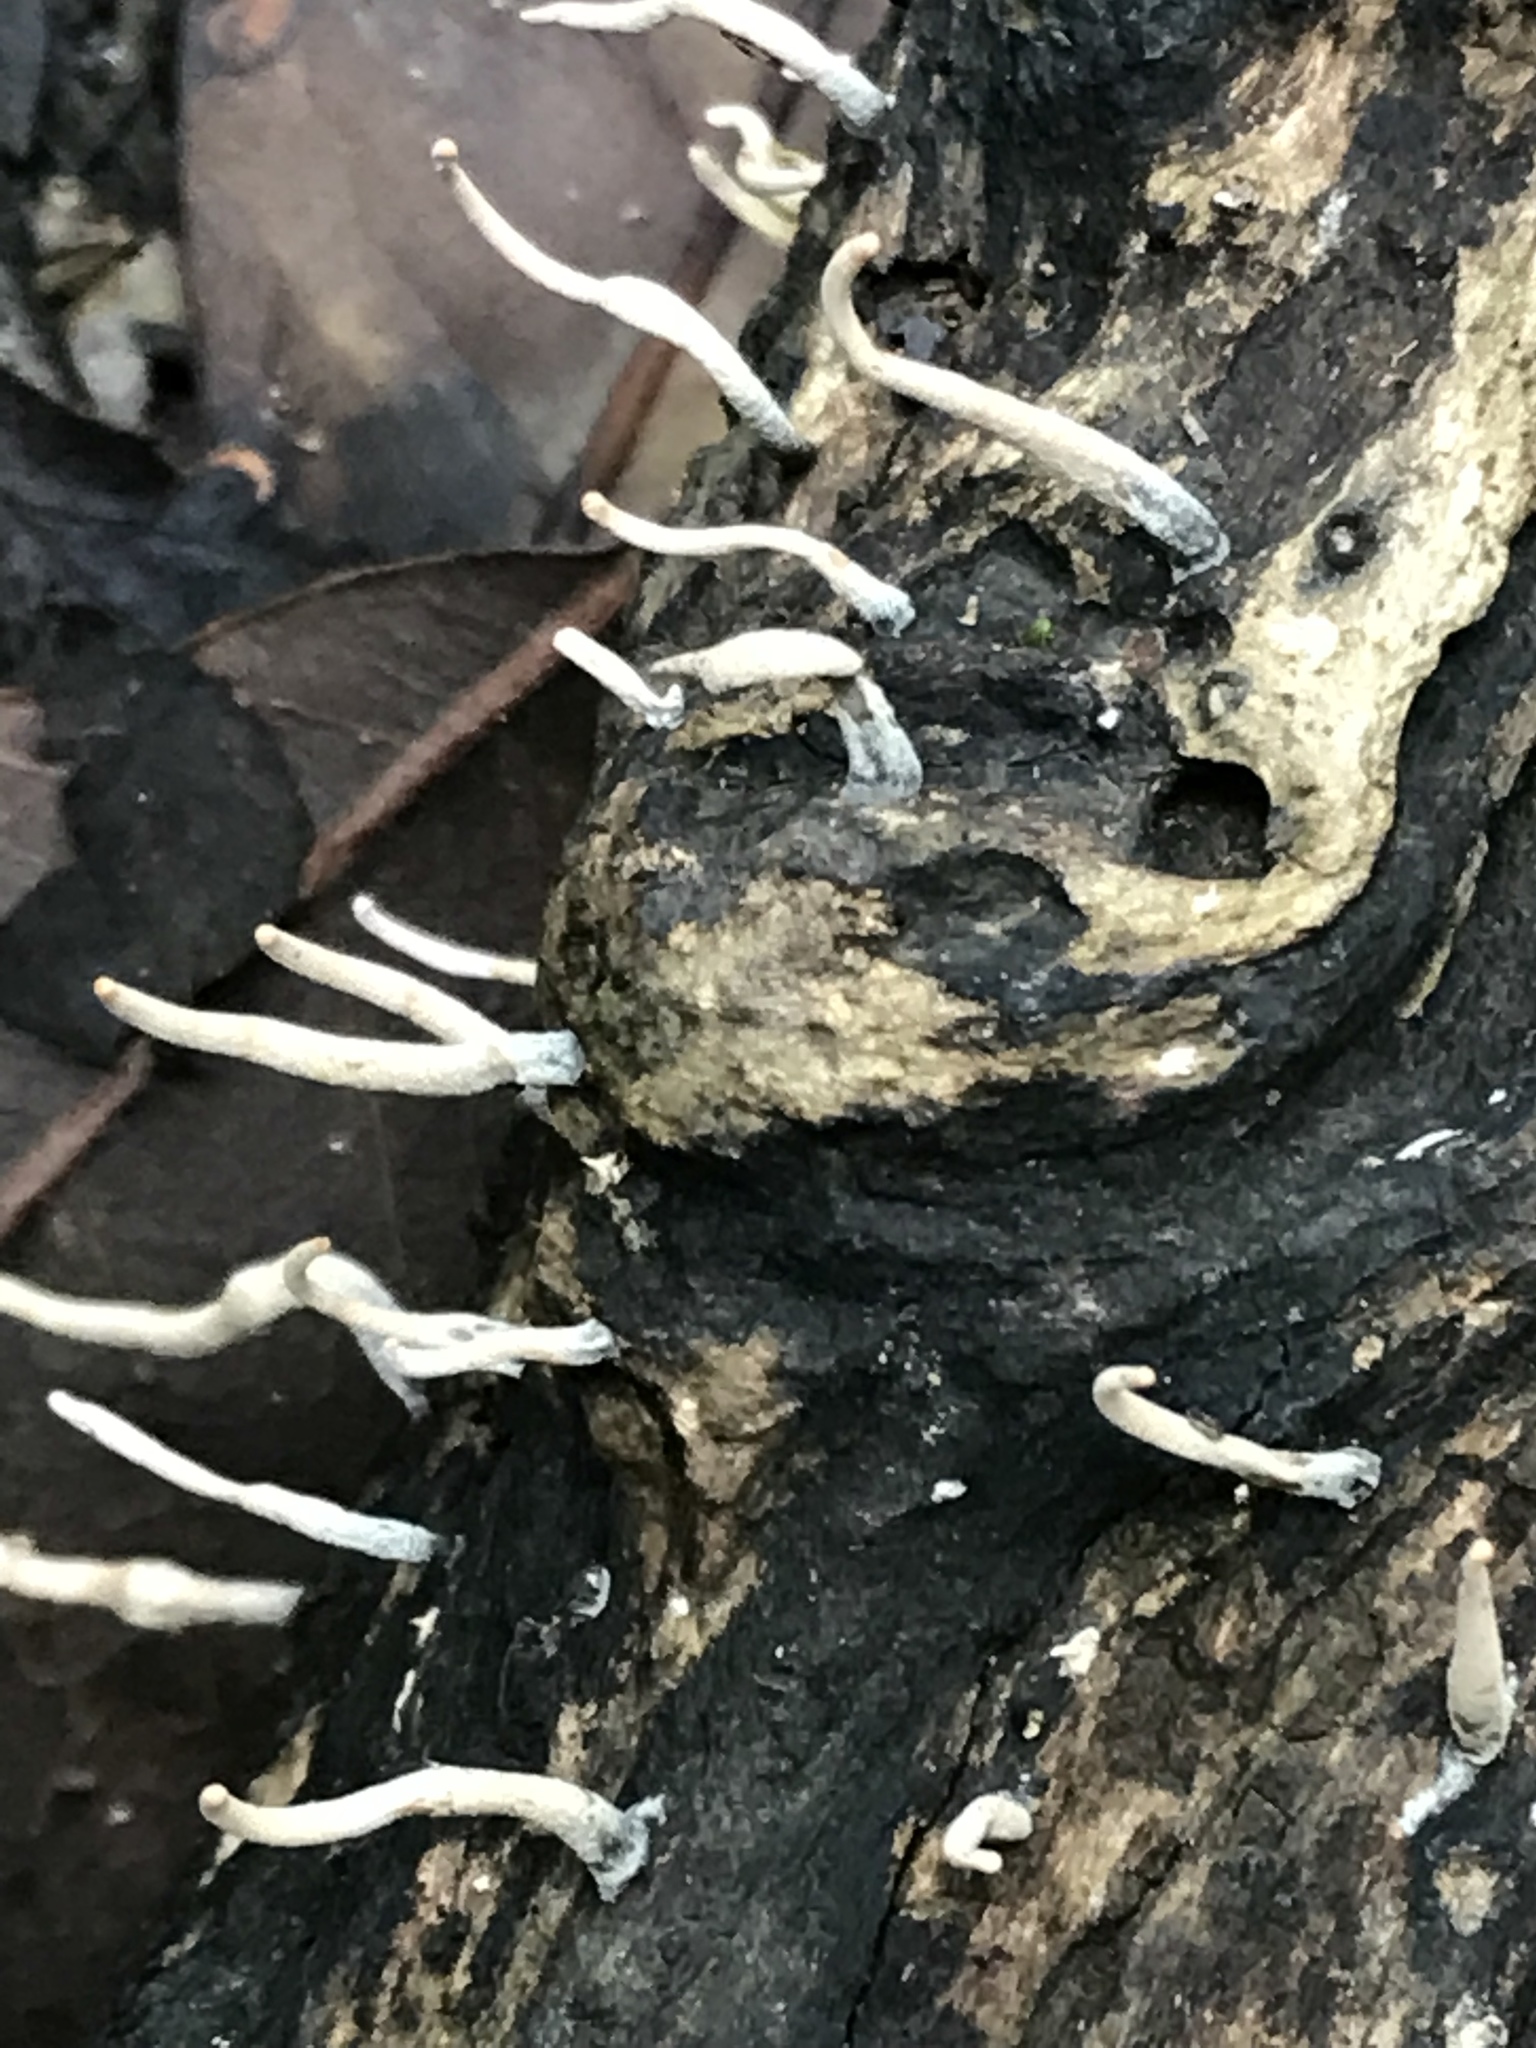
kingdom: Fungi
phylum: Ascomycota
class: Sordariomycetes
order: Xylariales
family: Xylariaceae
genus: Xylaria
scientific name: Xylaria hypoxylon
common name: Candle-snuff fungus
